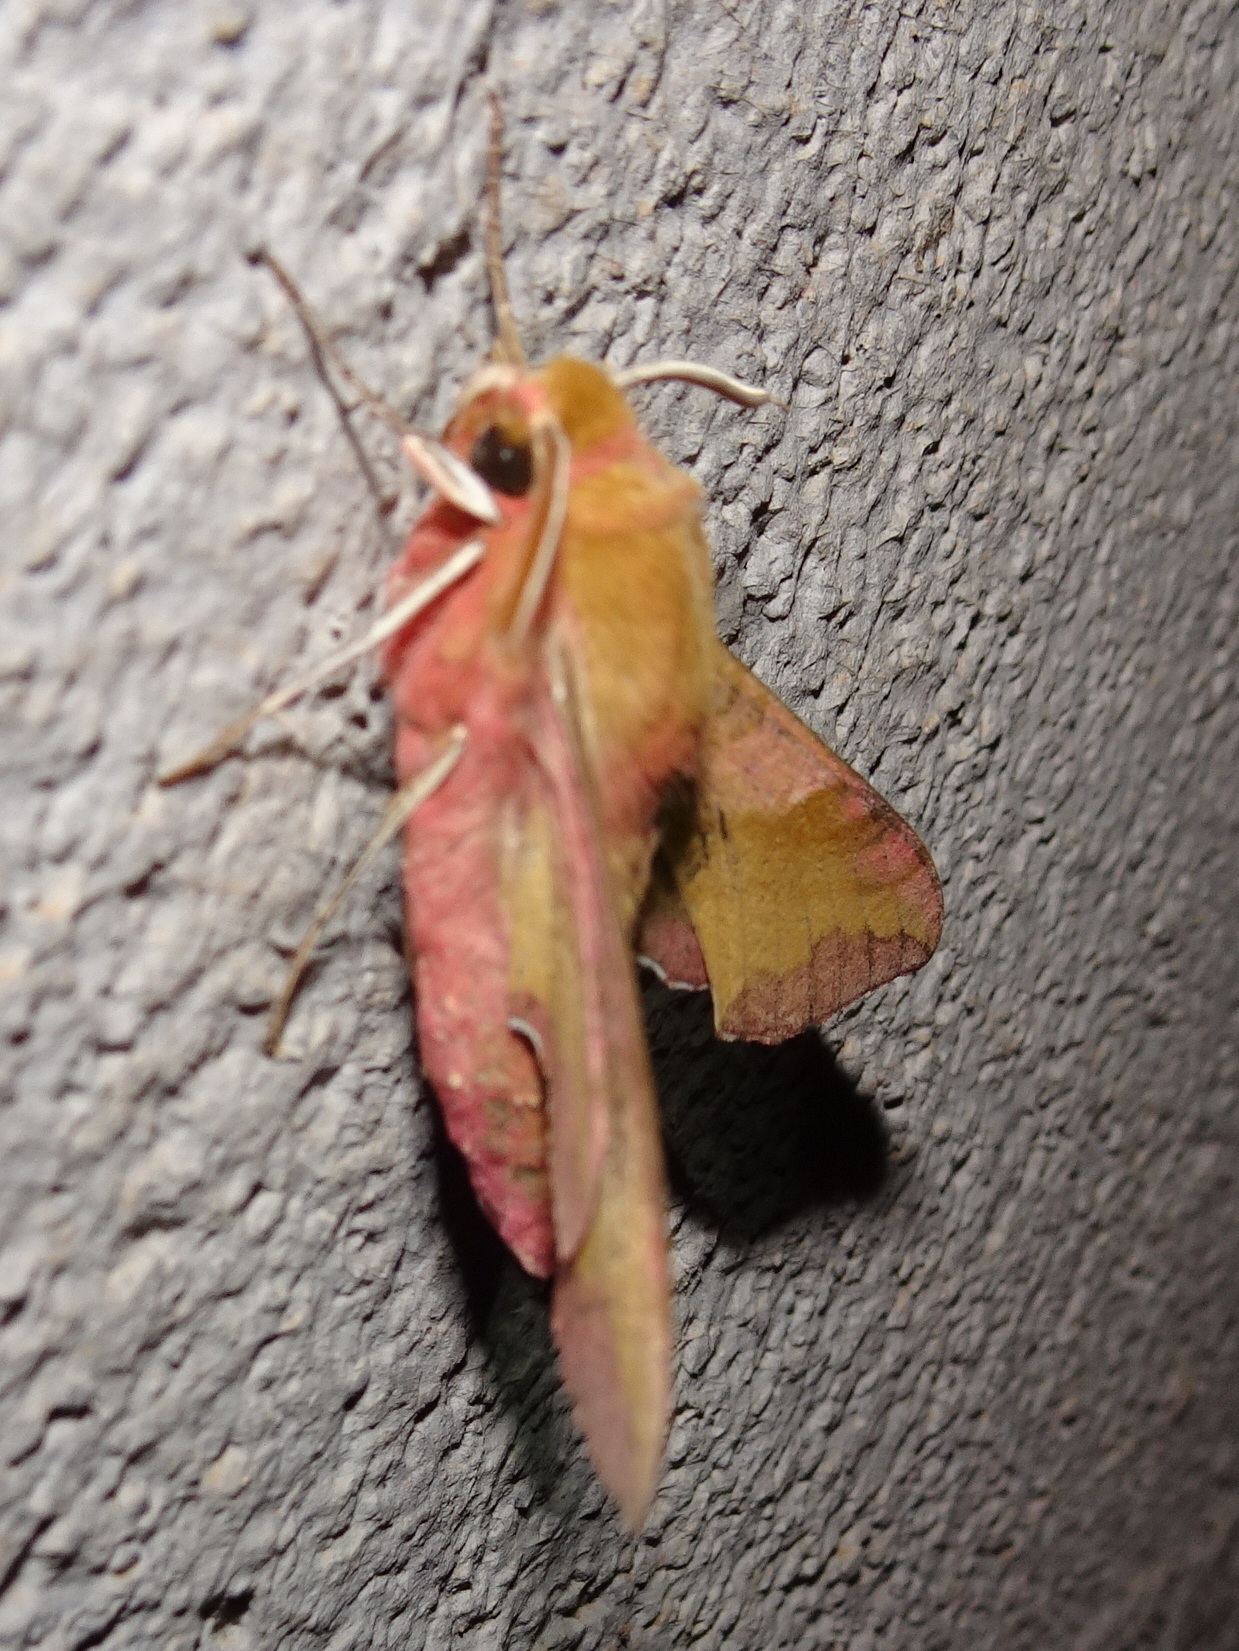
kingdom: Animalia
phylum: Arthropoda
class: Insecta
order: Lepidoptera
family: Sphingidae
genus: Deilephila
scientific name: Deilephila porcellus
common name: Small elephant hawk-moth
